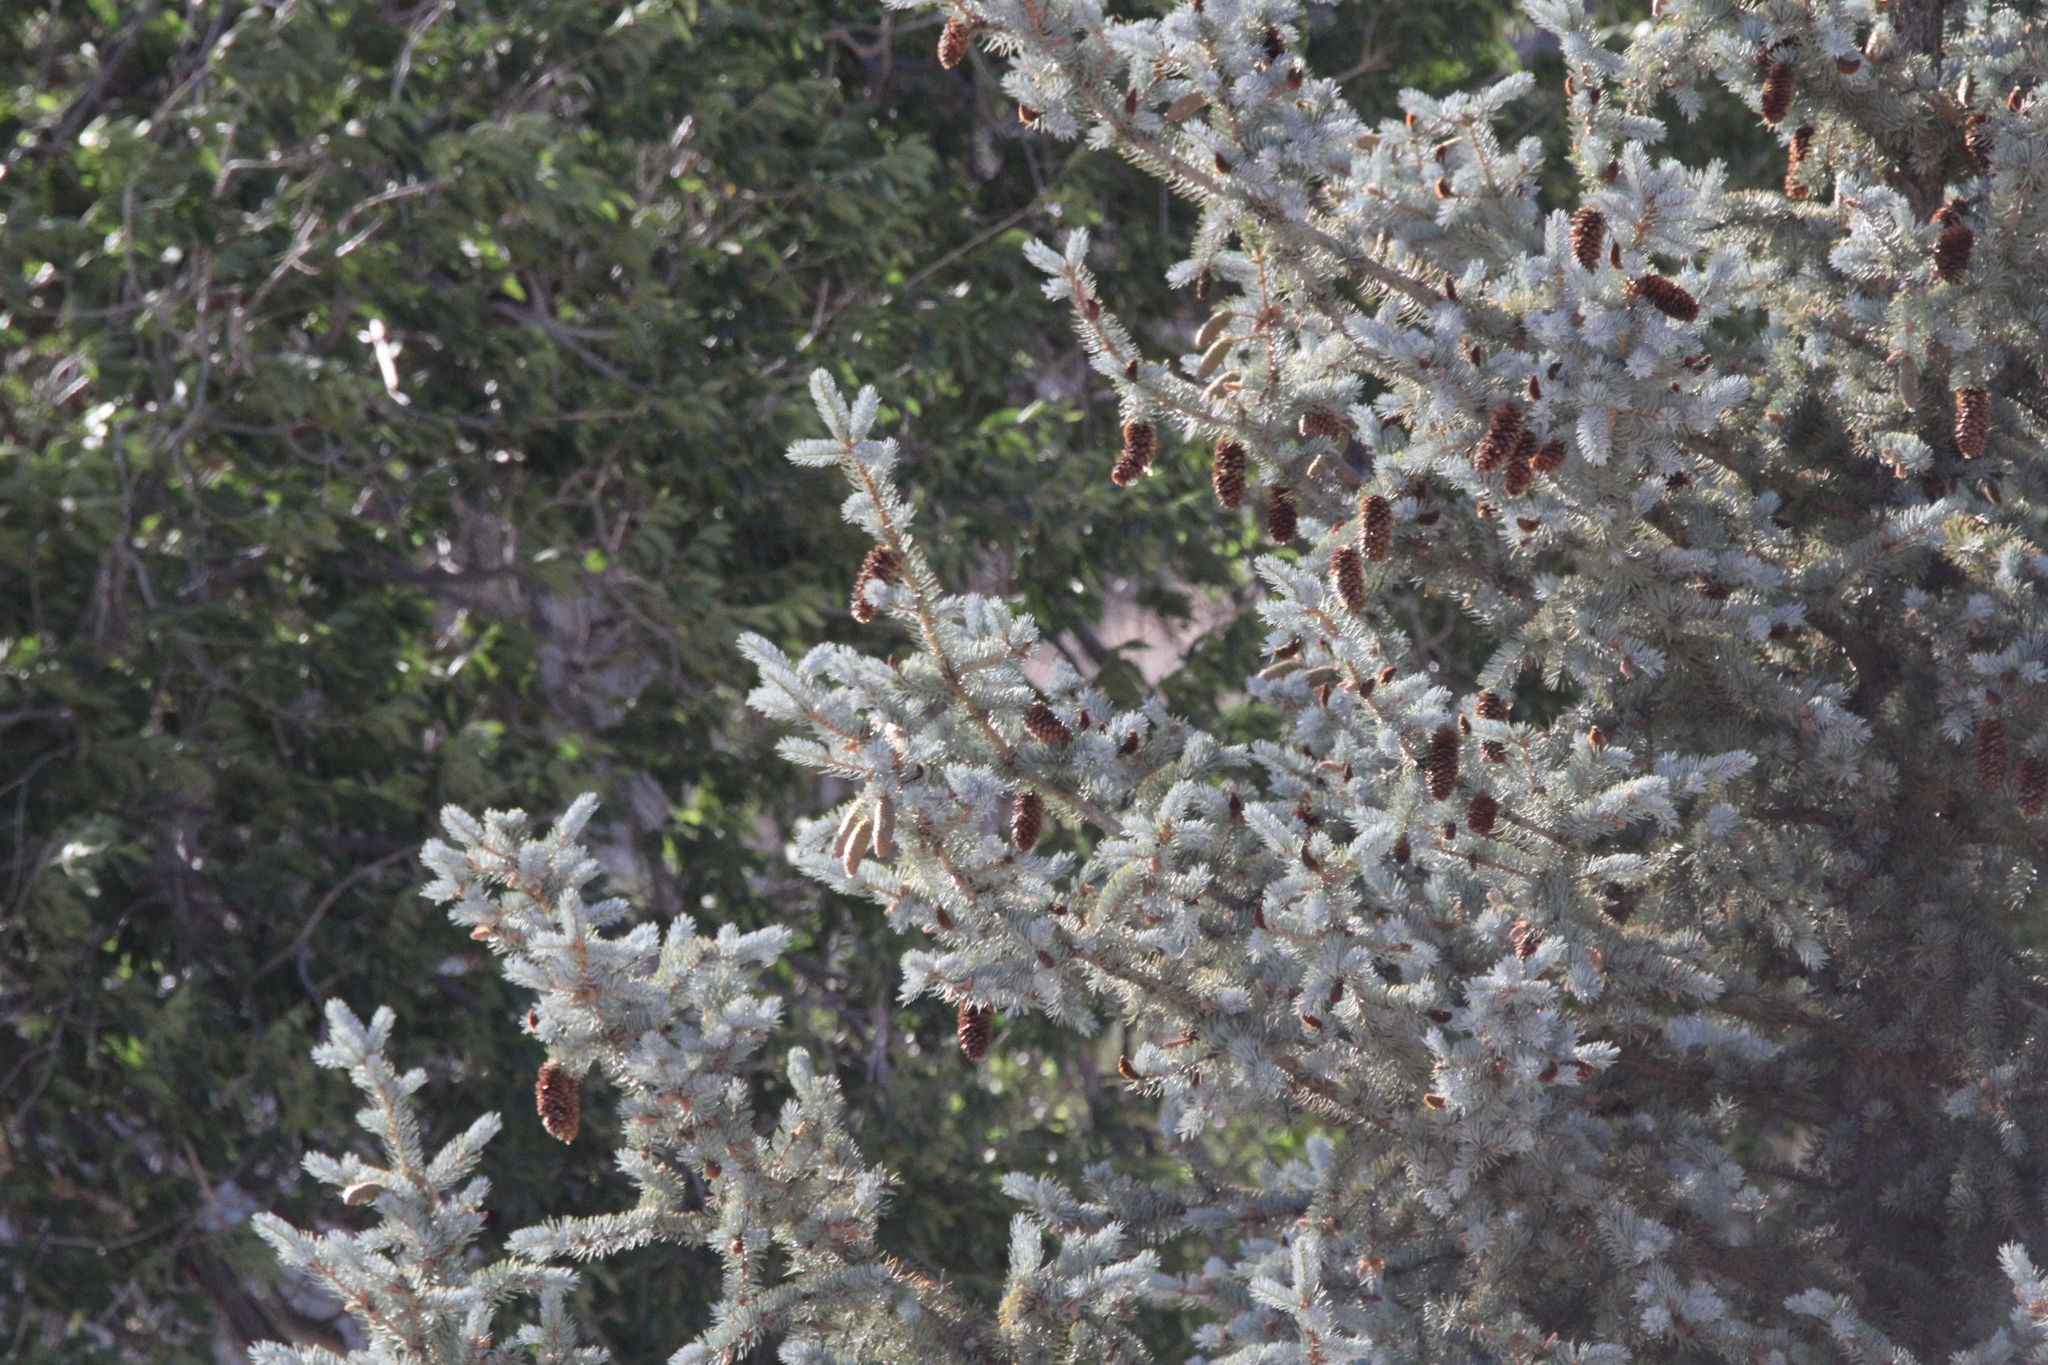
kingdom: Plantae
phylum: Tracheophyta
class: Pinopsida
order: Pinales
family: Pinaceae
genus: Picea
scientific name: Picea pungens
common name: Colorado spruce
